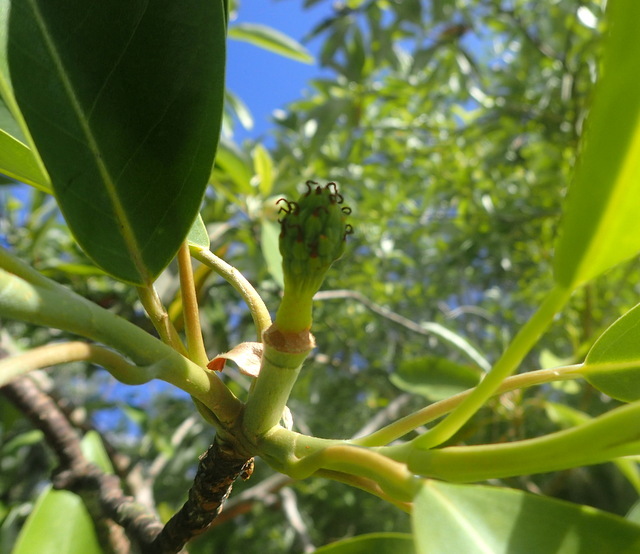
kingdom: Plantae
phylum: Tracheophyta
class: Magnoliopsida
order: Magnoliales
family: Magnoliaceae
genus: Magnolia
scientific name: Magnolia virginiana
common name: Swamp bay
